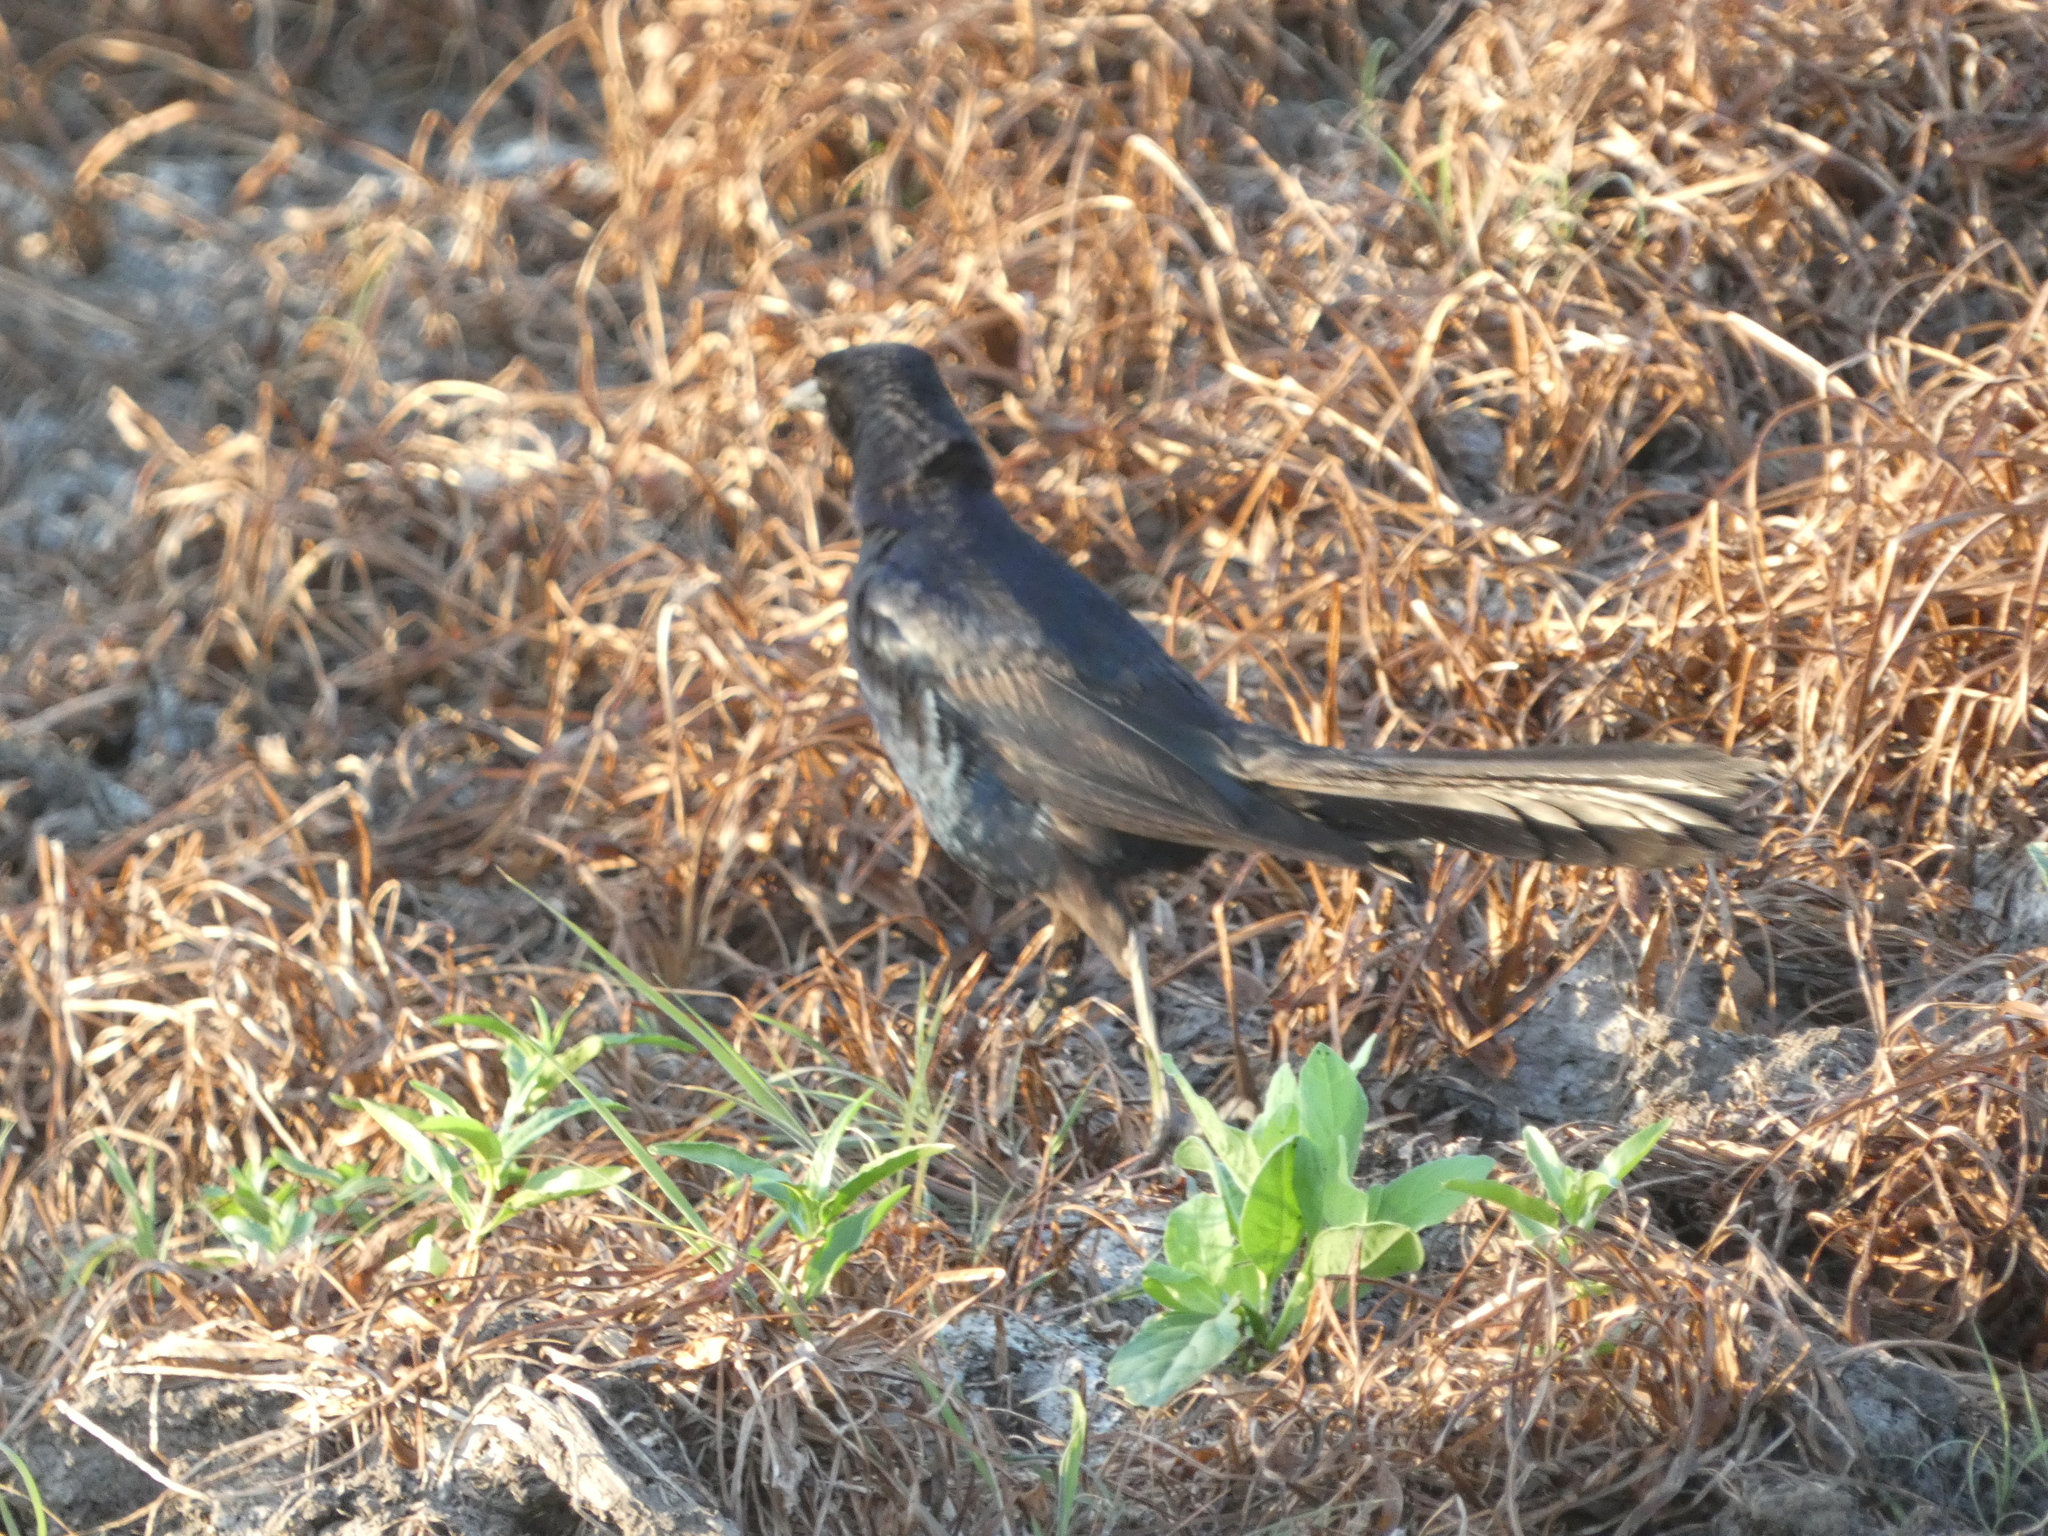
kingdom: Animalia
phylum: Chordata
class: Aves
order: Passeriformes
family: Icteridae
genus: Quiscalus
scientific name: Quiscalus mexicanus
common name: Great-tailed grackle
